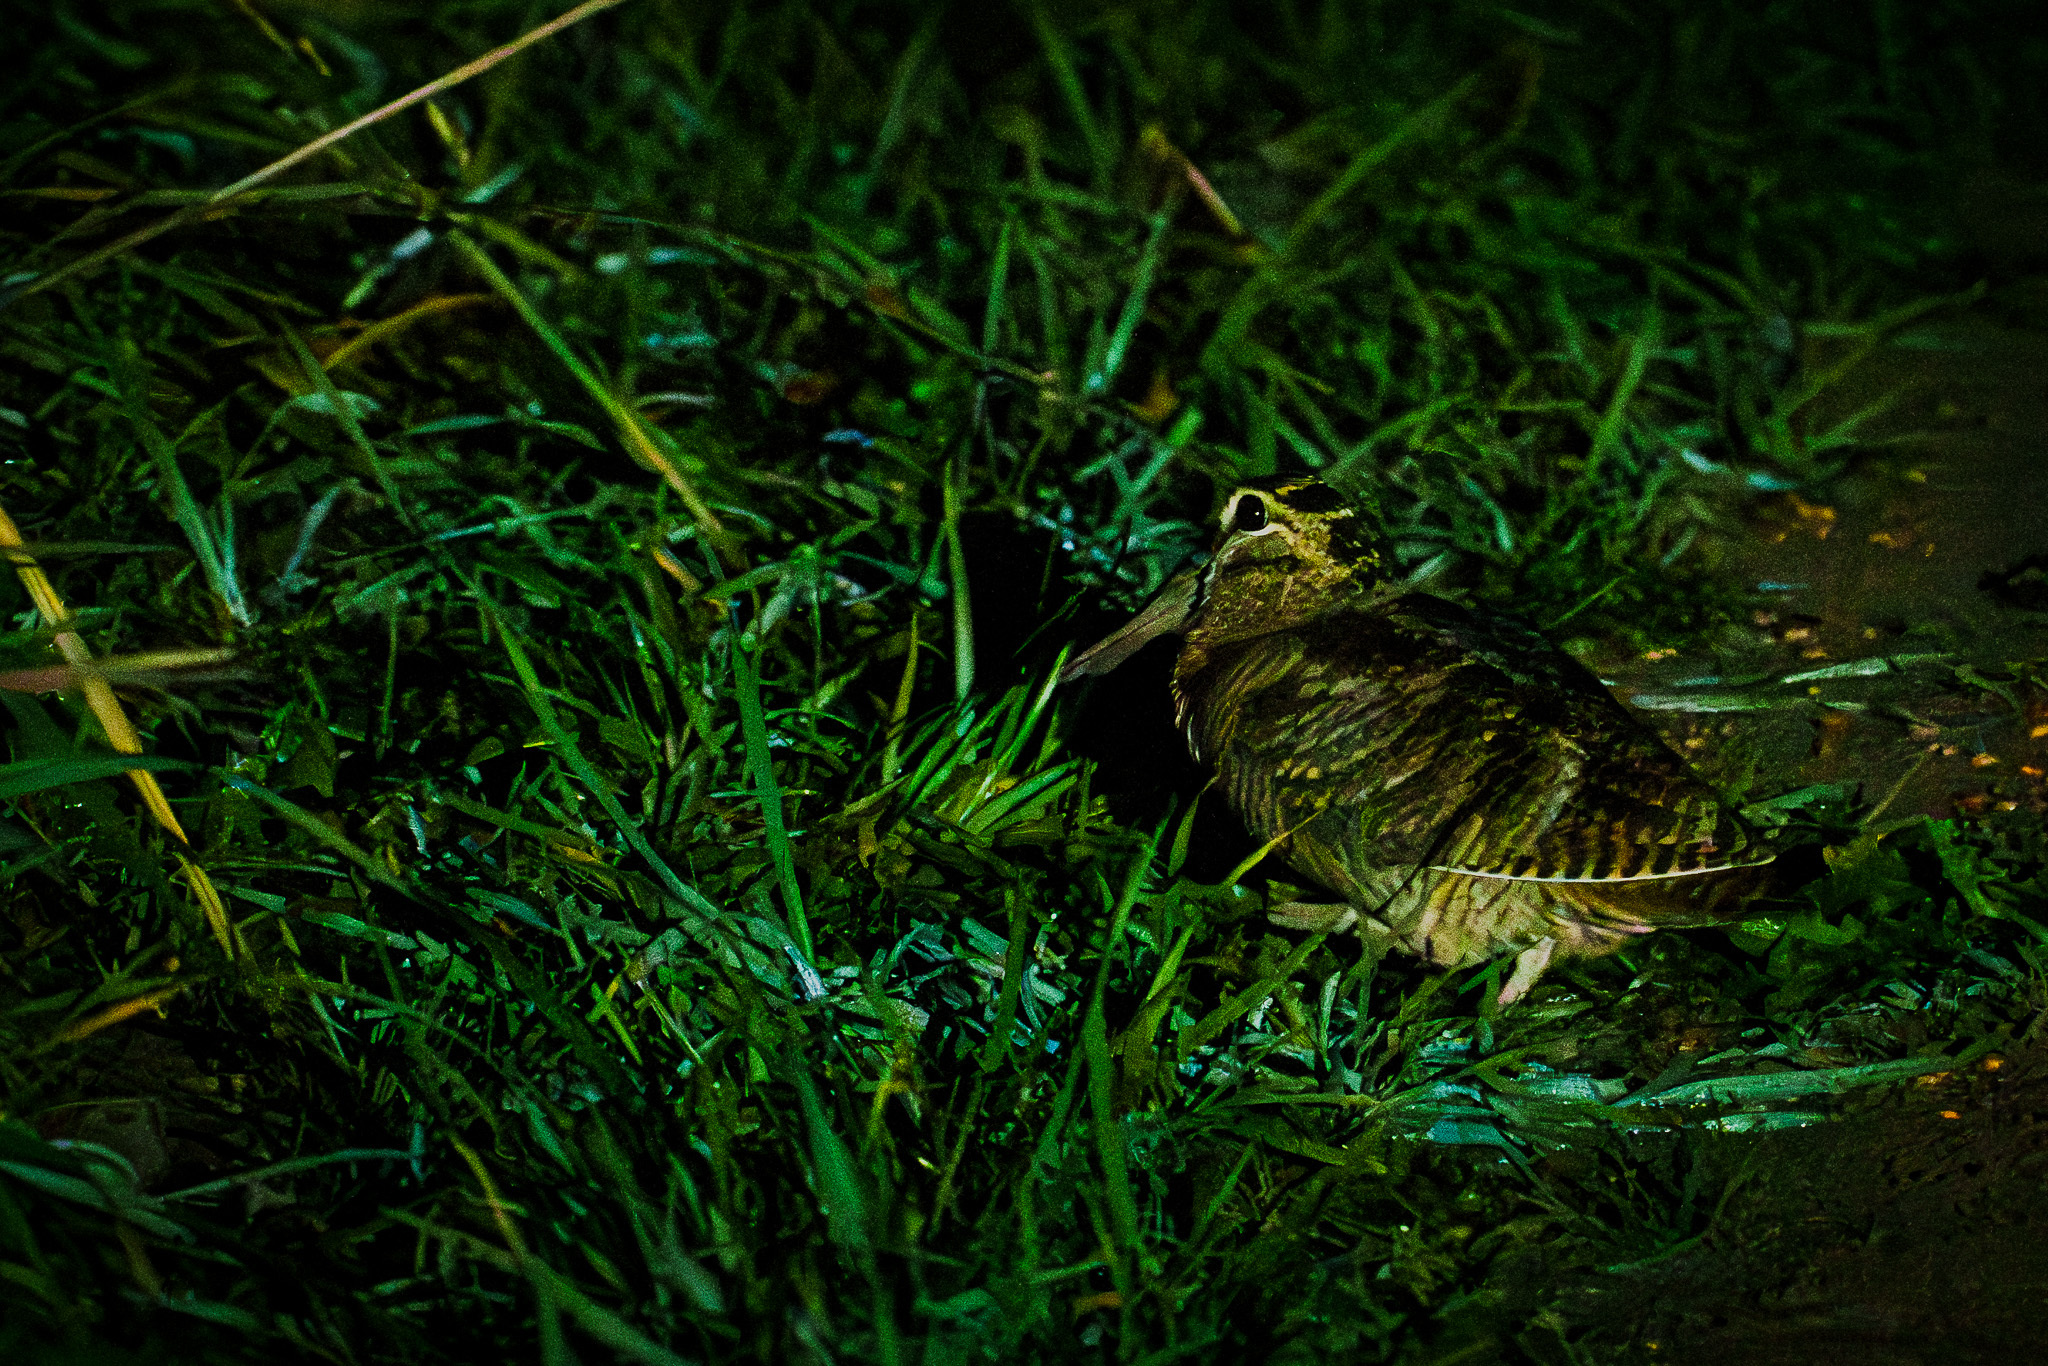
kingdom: Animalia
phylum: Chordata
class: Aves
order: Charadriiformes
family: Scolopacidae
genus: Scolopax
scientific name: Scolopax rusticola
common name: Eurasian woodcock
